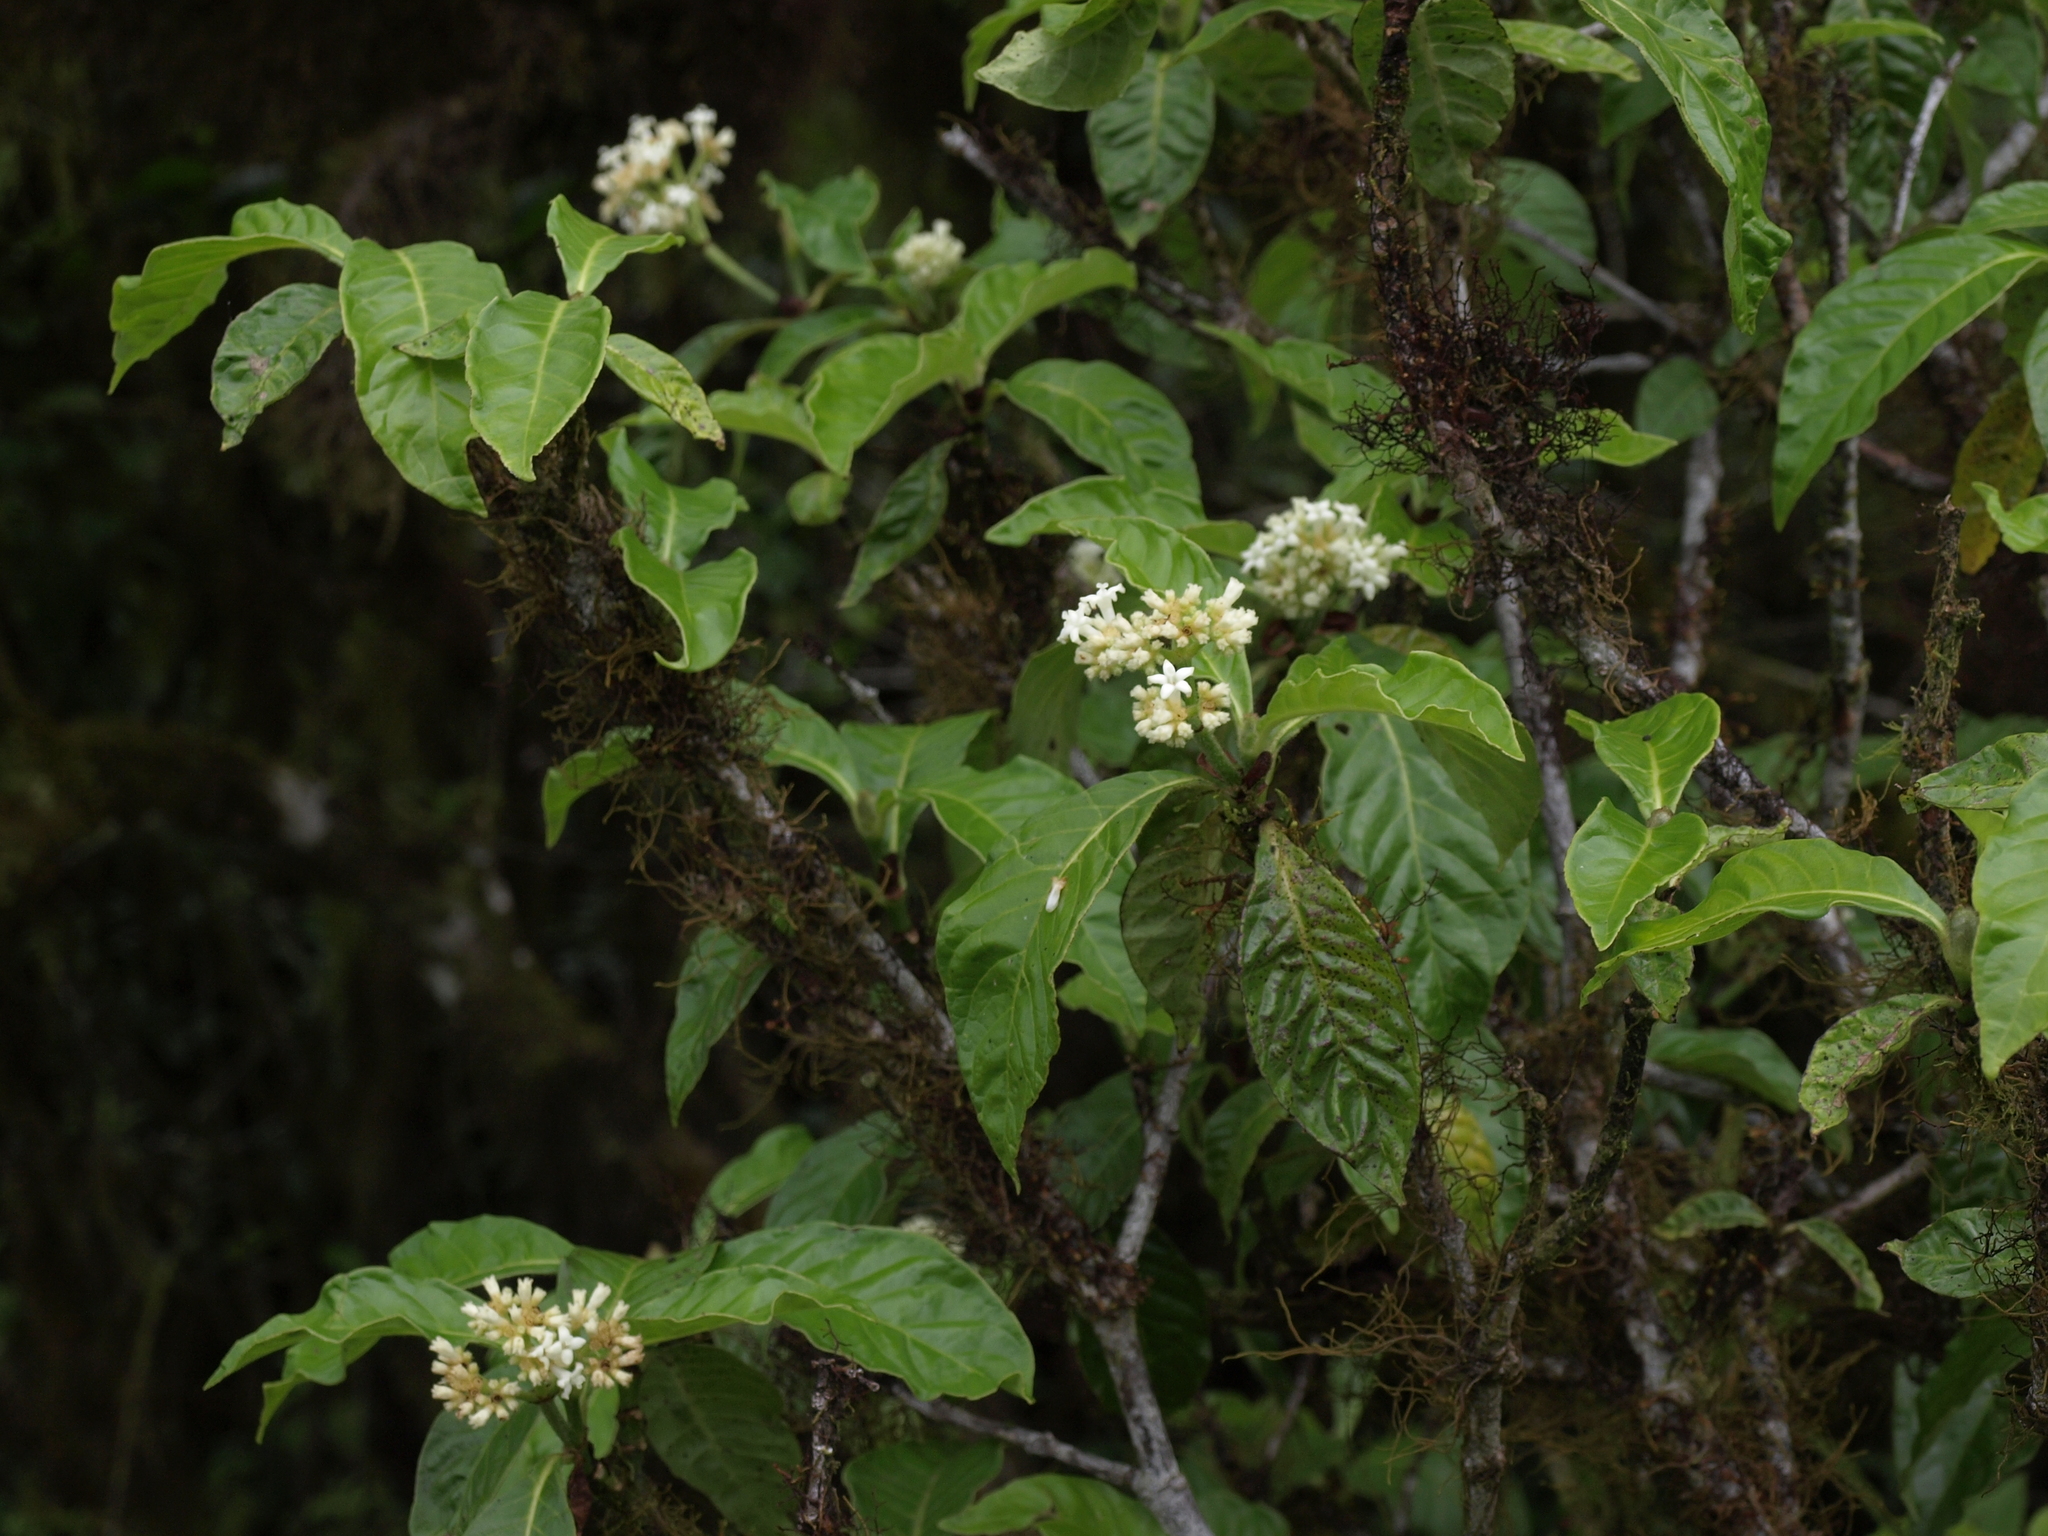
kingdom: Plantae
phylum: Tracheophyta
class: Magnoliopsida
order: Gentianales
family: Rubiaceae
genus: Psychotria
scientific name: Psychotria rufipes
